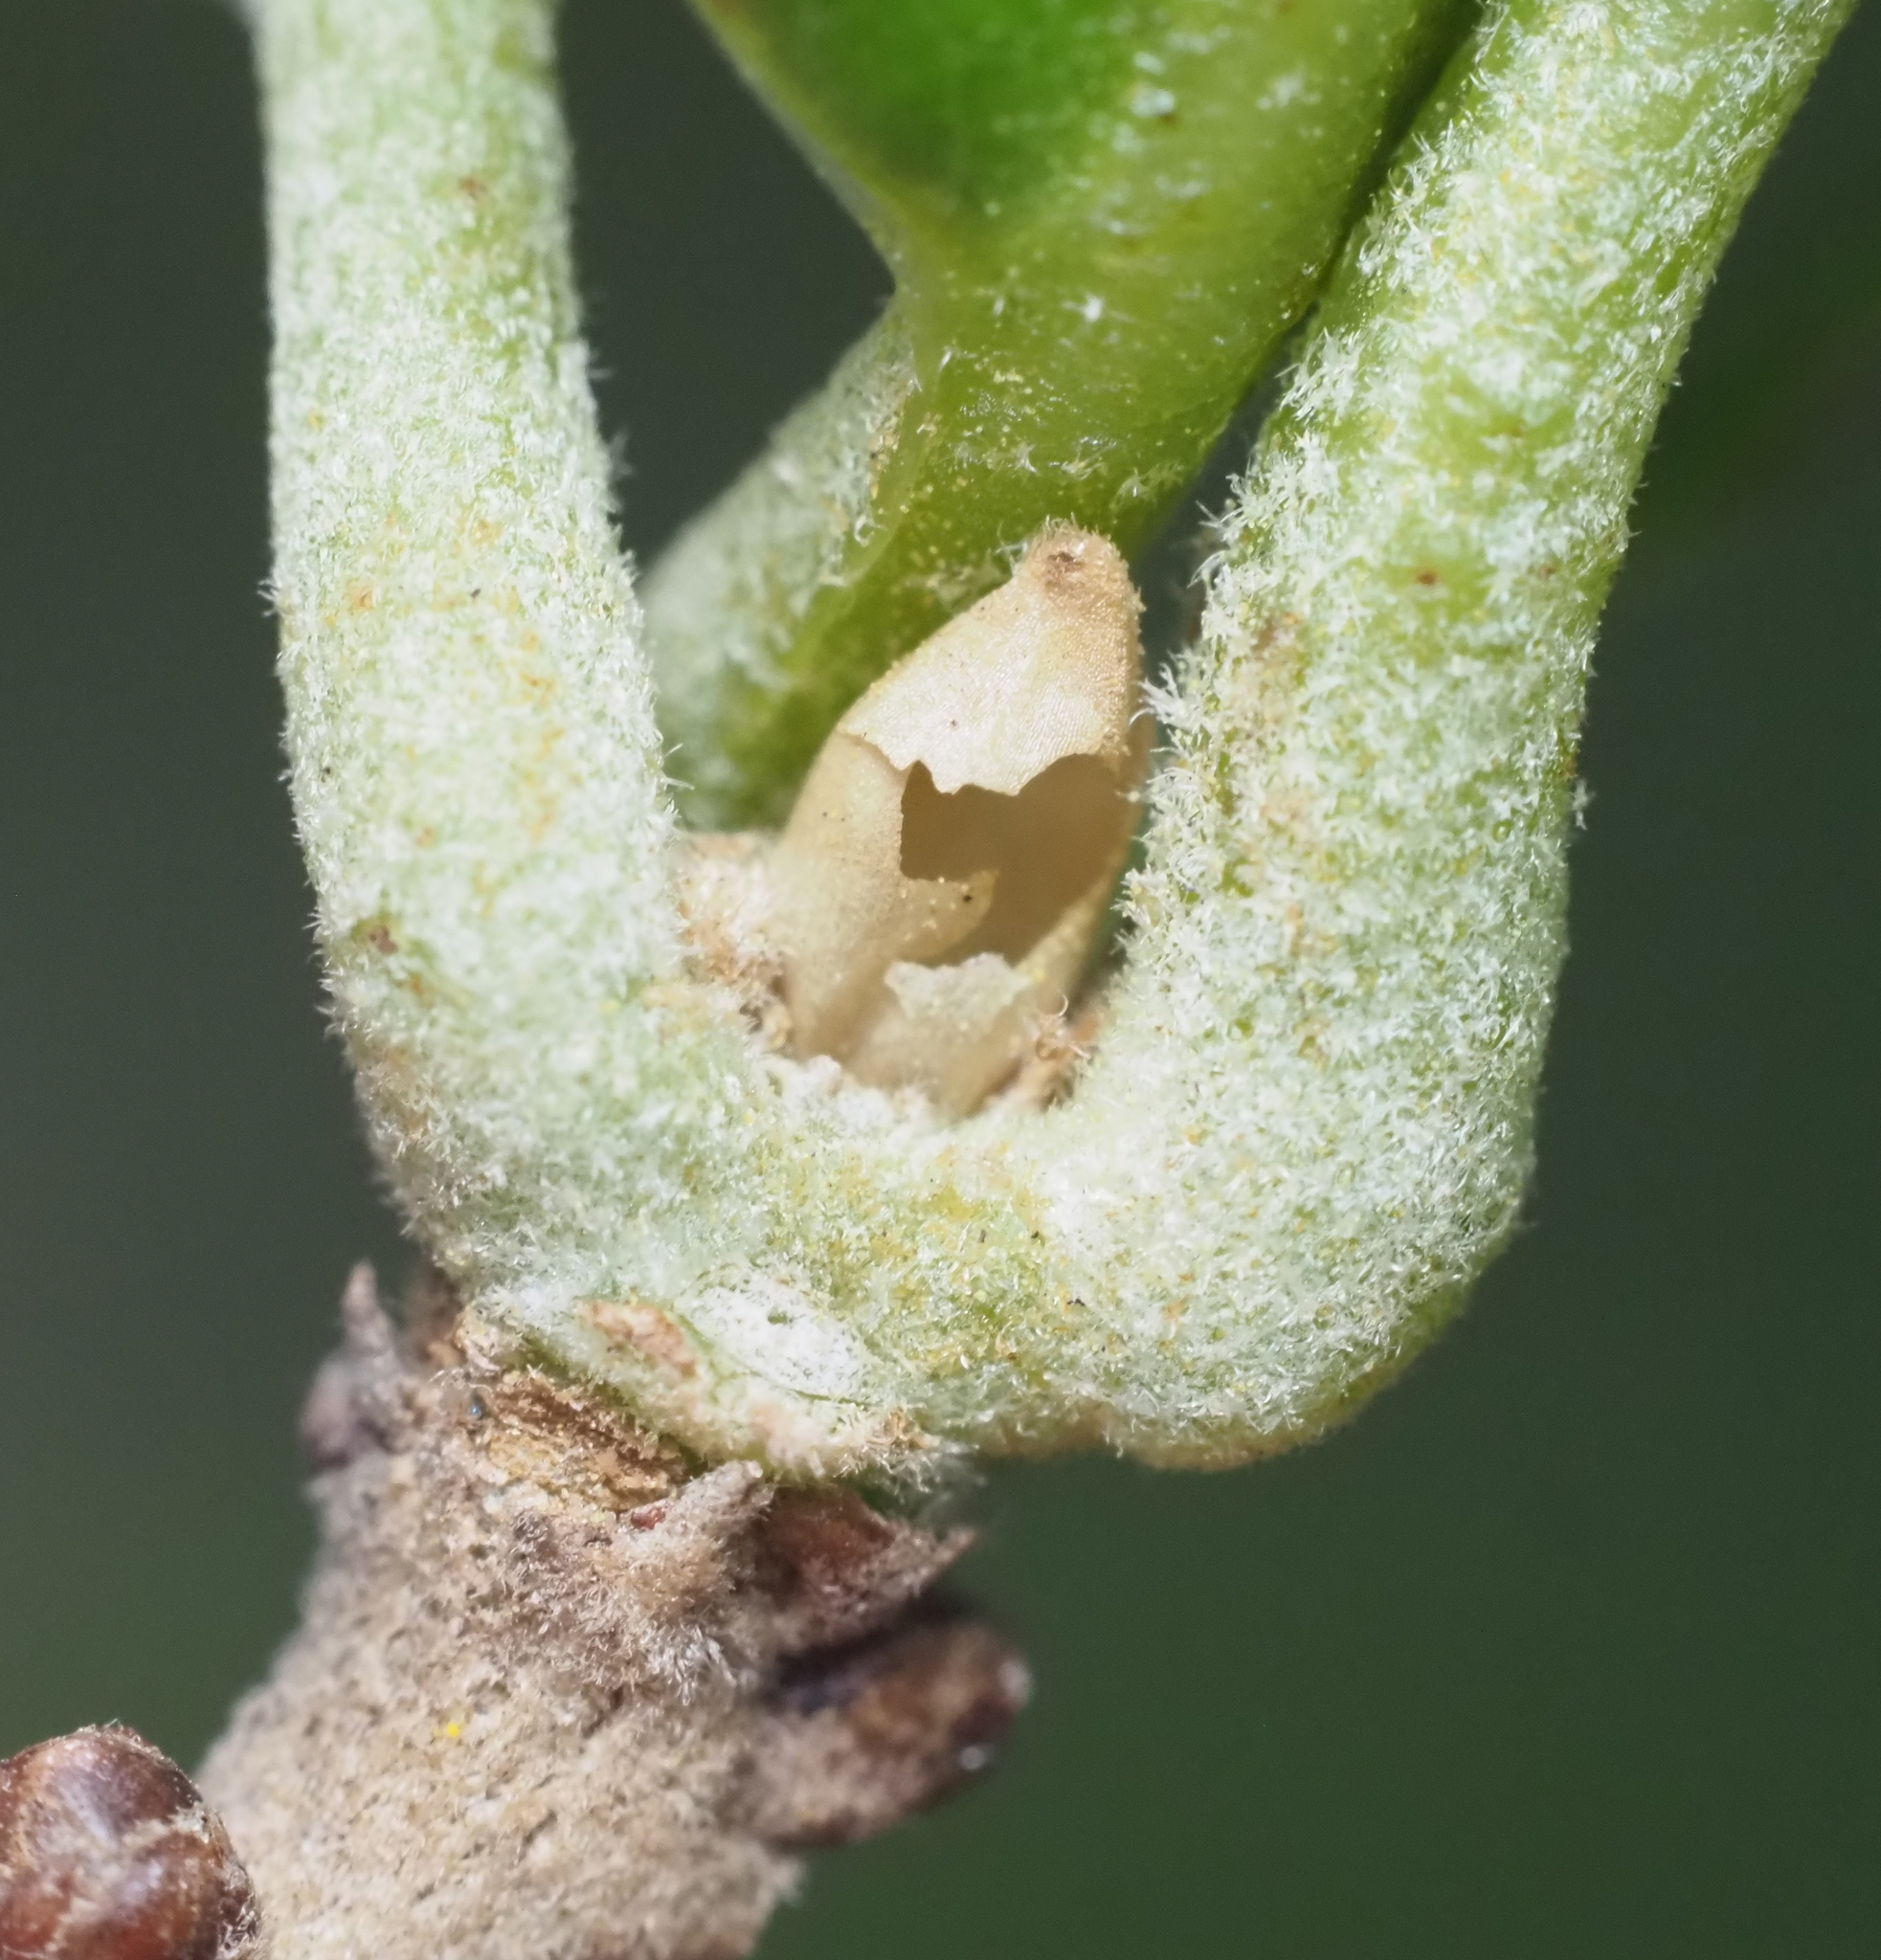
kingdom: Animalia
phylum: Arthropoda
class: Insecta
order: Hymenoptera
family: Cynipidae
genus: Disholcaspis
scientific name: Disholcaspis
